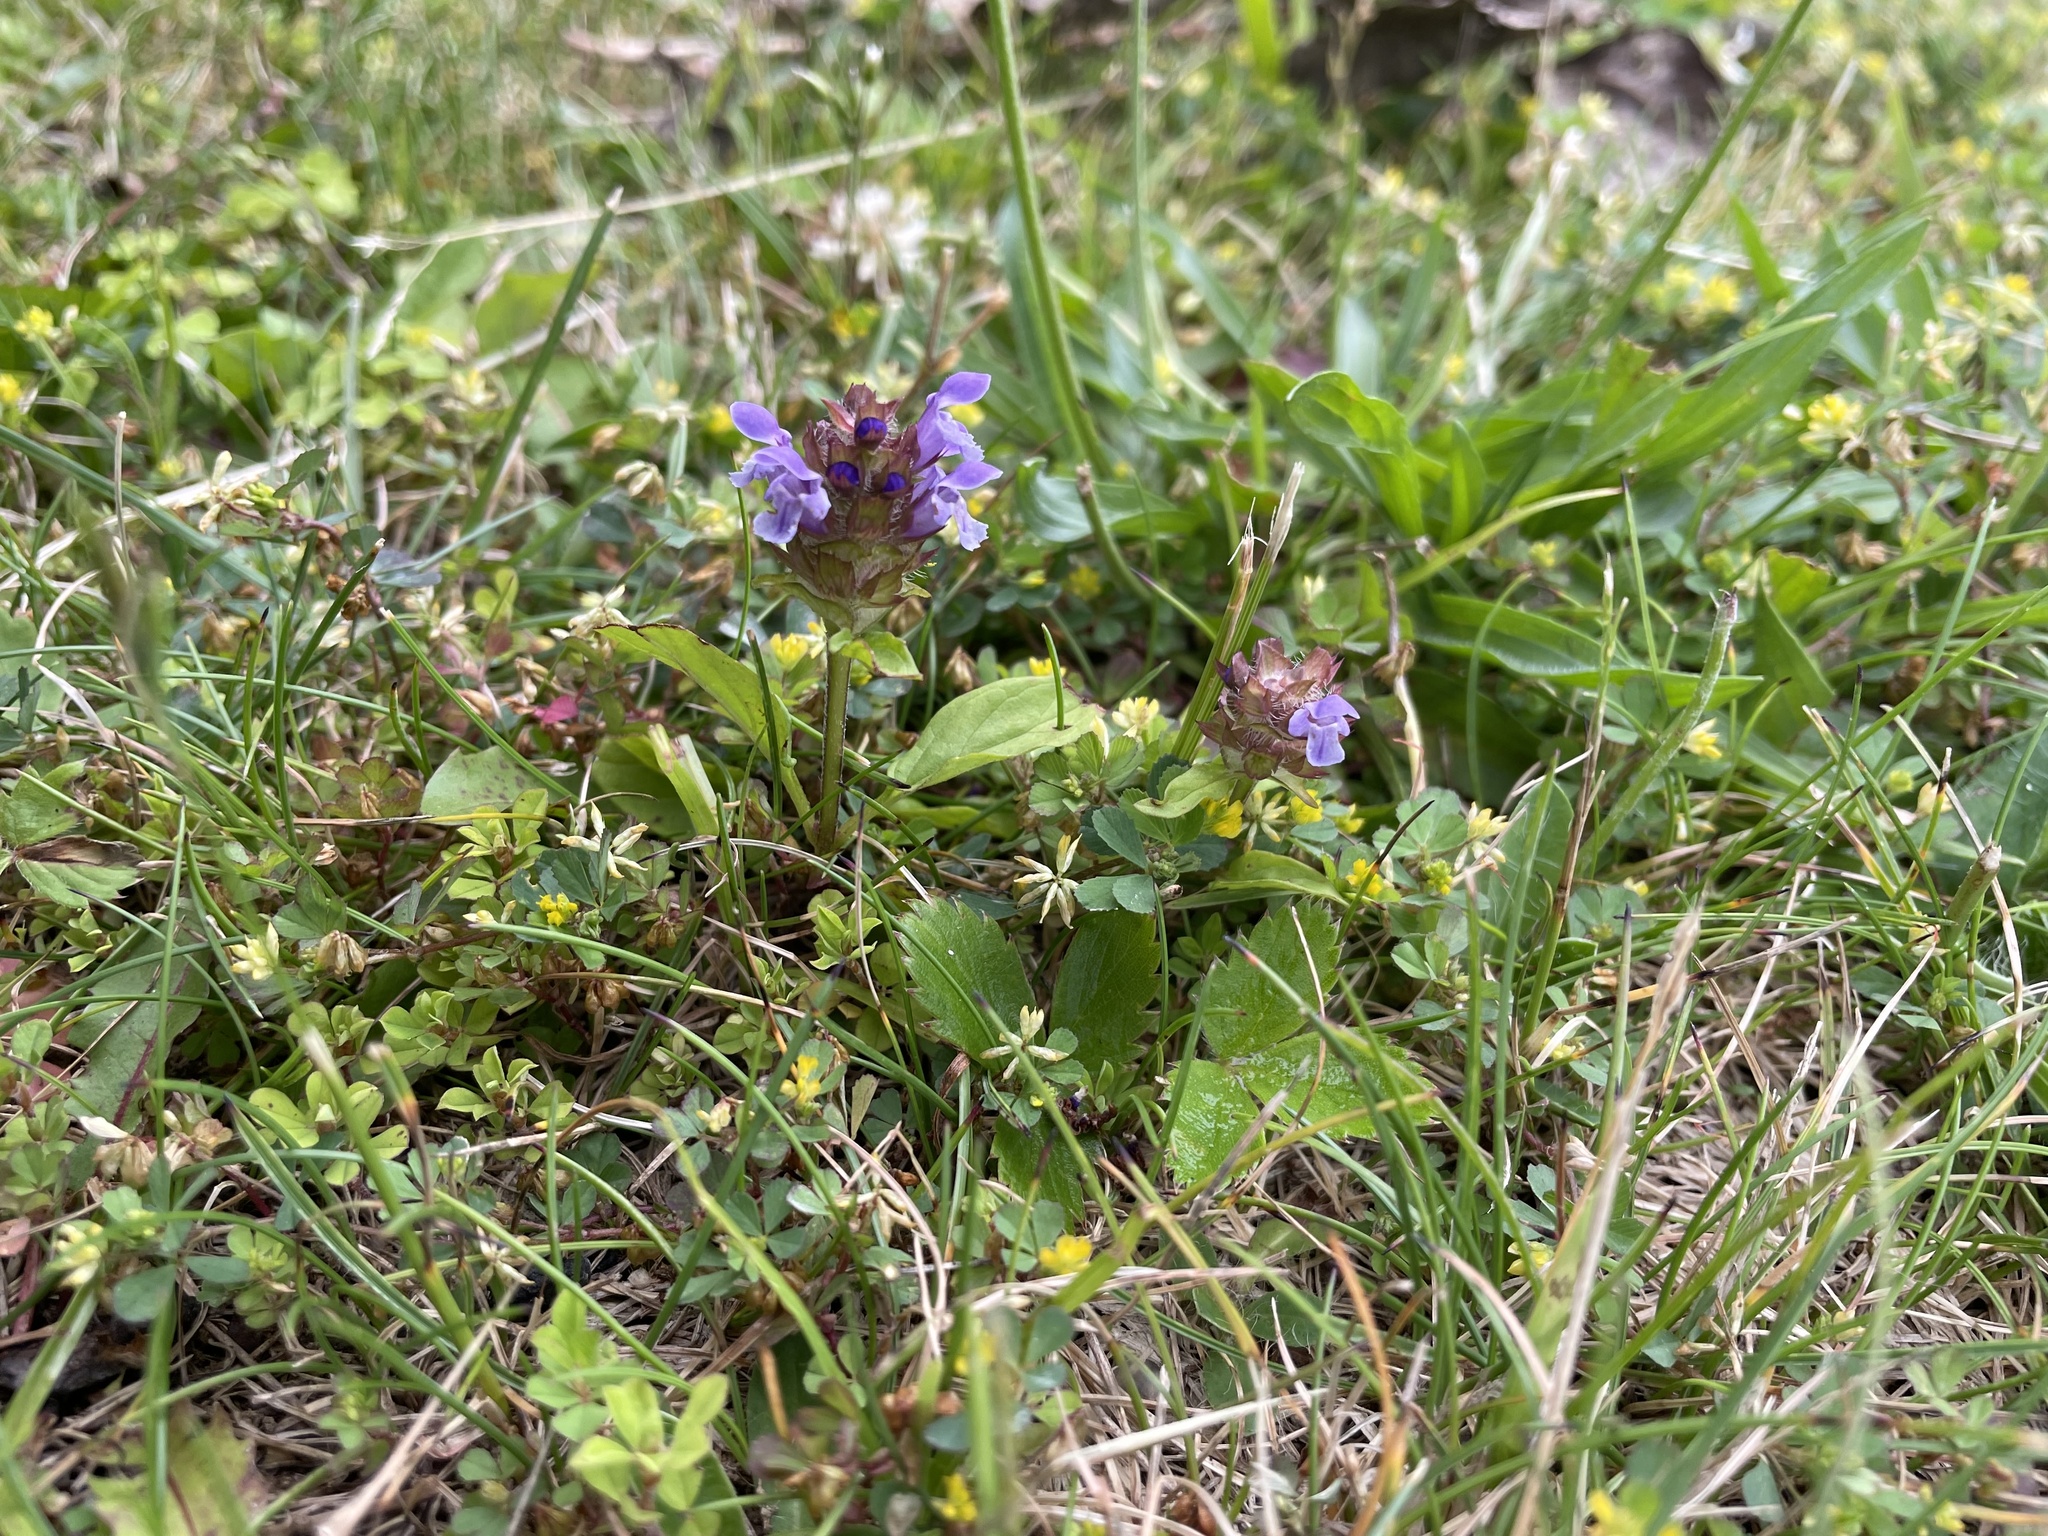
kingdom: Plantae
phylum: Tracheophyta
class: Magnoliopsida
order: Lamiales
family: Lamiaceae
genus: Prunella
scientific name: Prunella vulgaris
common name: Heal-all
